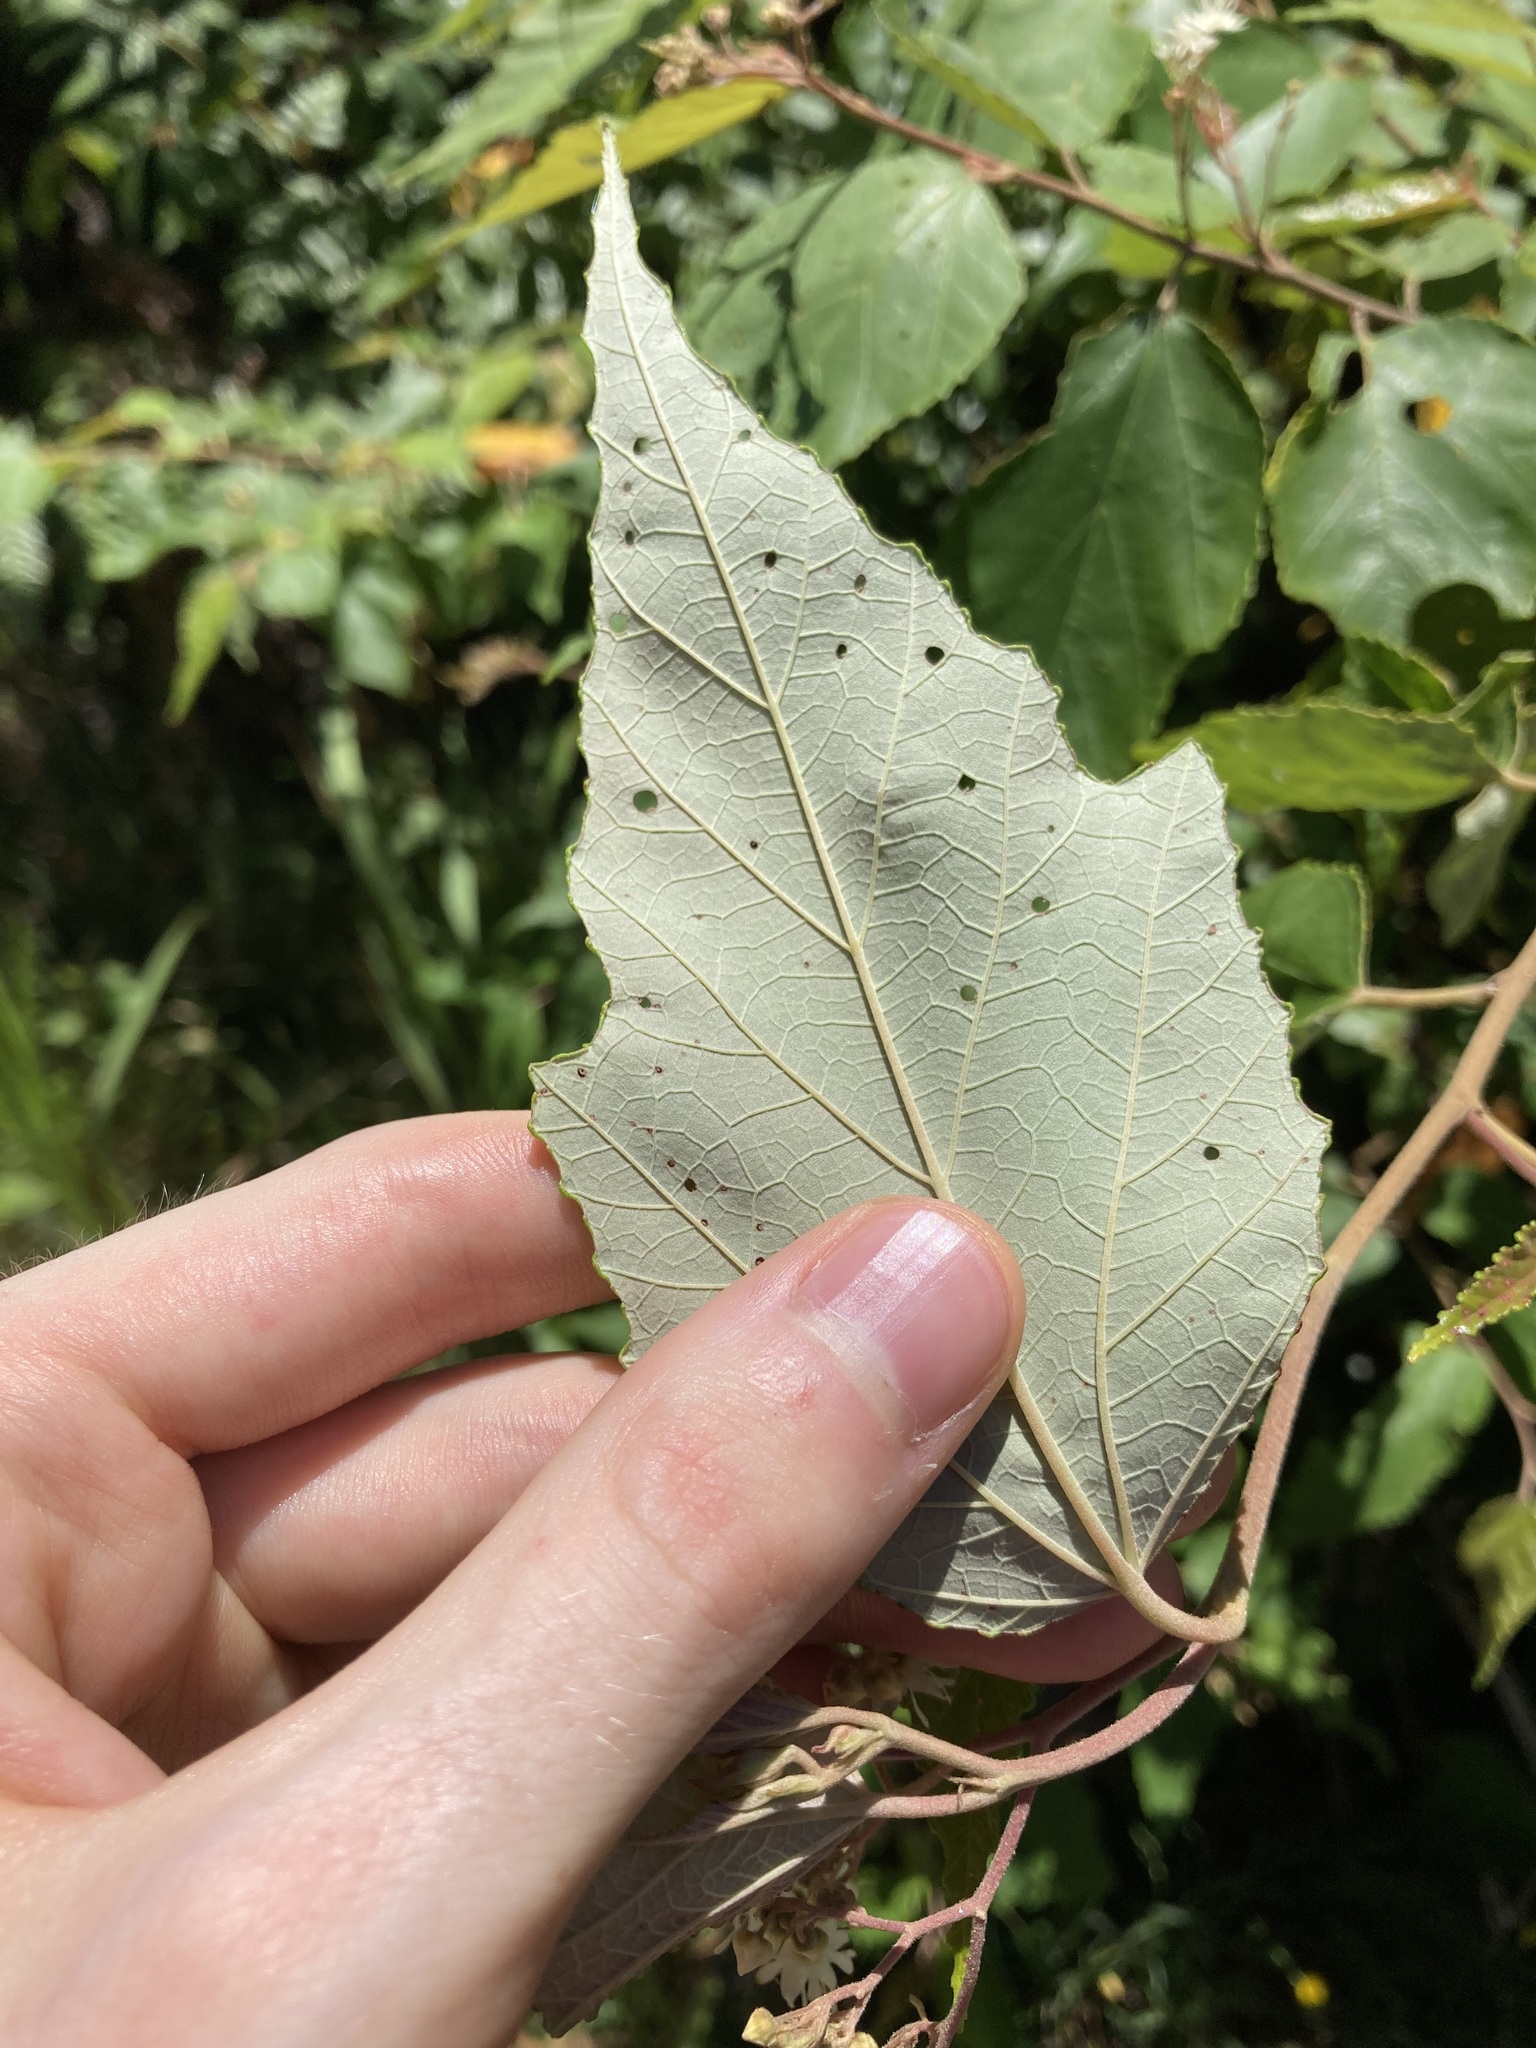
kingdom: Plantae
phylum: Tracheophyta
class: Magnoliopsida
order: Malvales
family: Malvaceae
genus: Androcalva
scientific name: Androcalva fraseri
